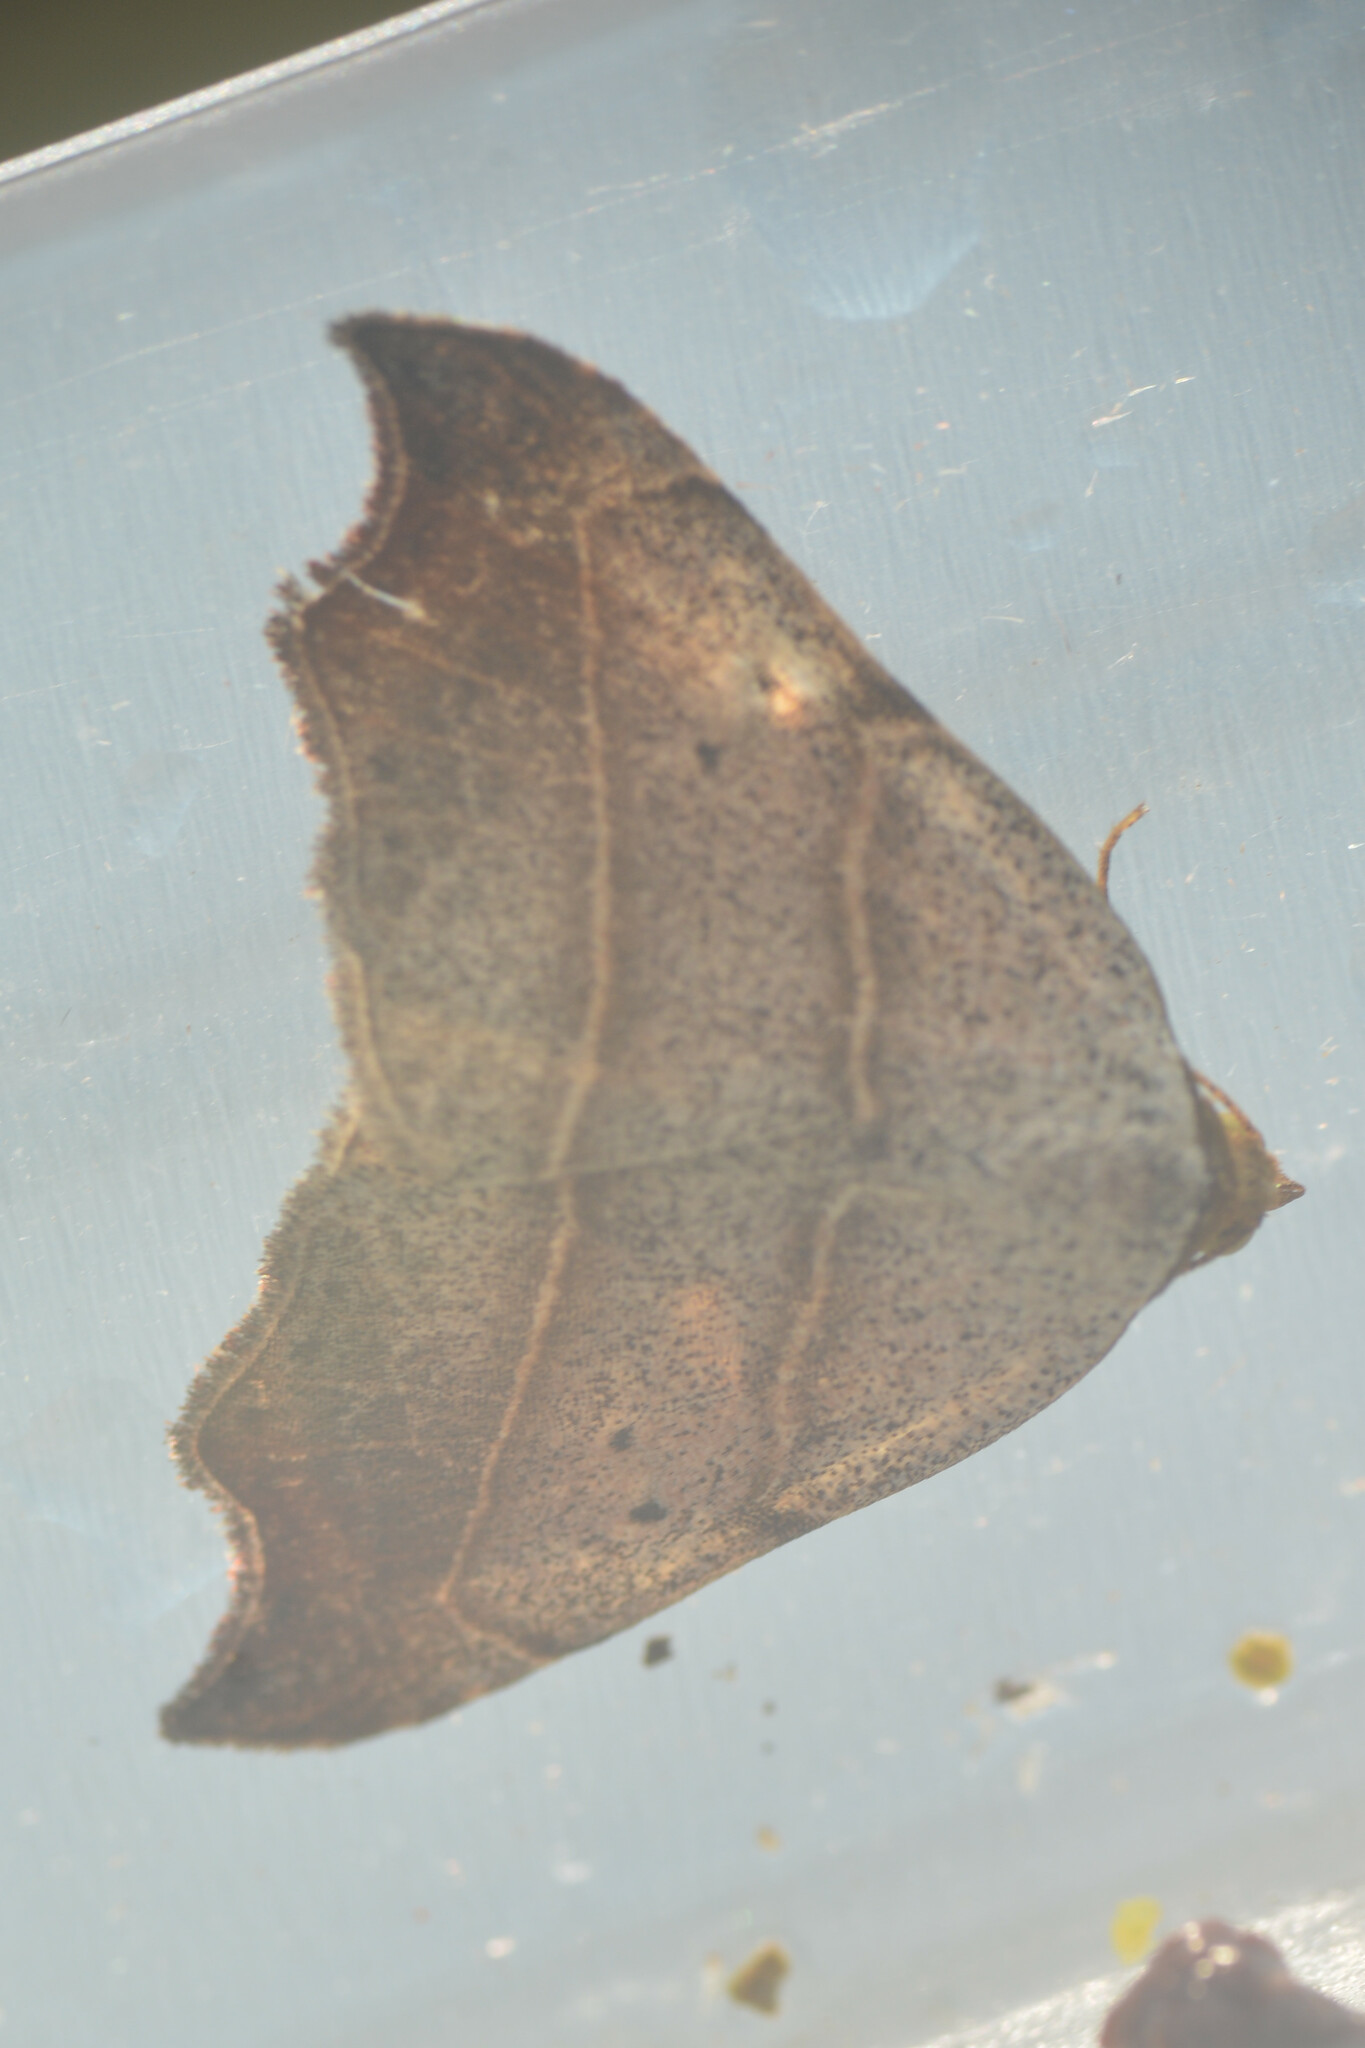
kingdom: Animalia
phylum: Arthropoda
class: Insecta
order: Lepidoptera
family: Erebidae
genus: Laspeyria
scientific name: Laspeyria flexula
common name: Beautiful hook-tip
